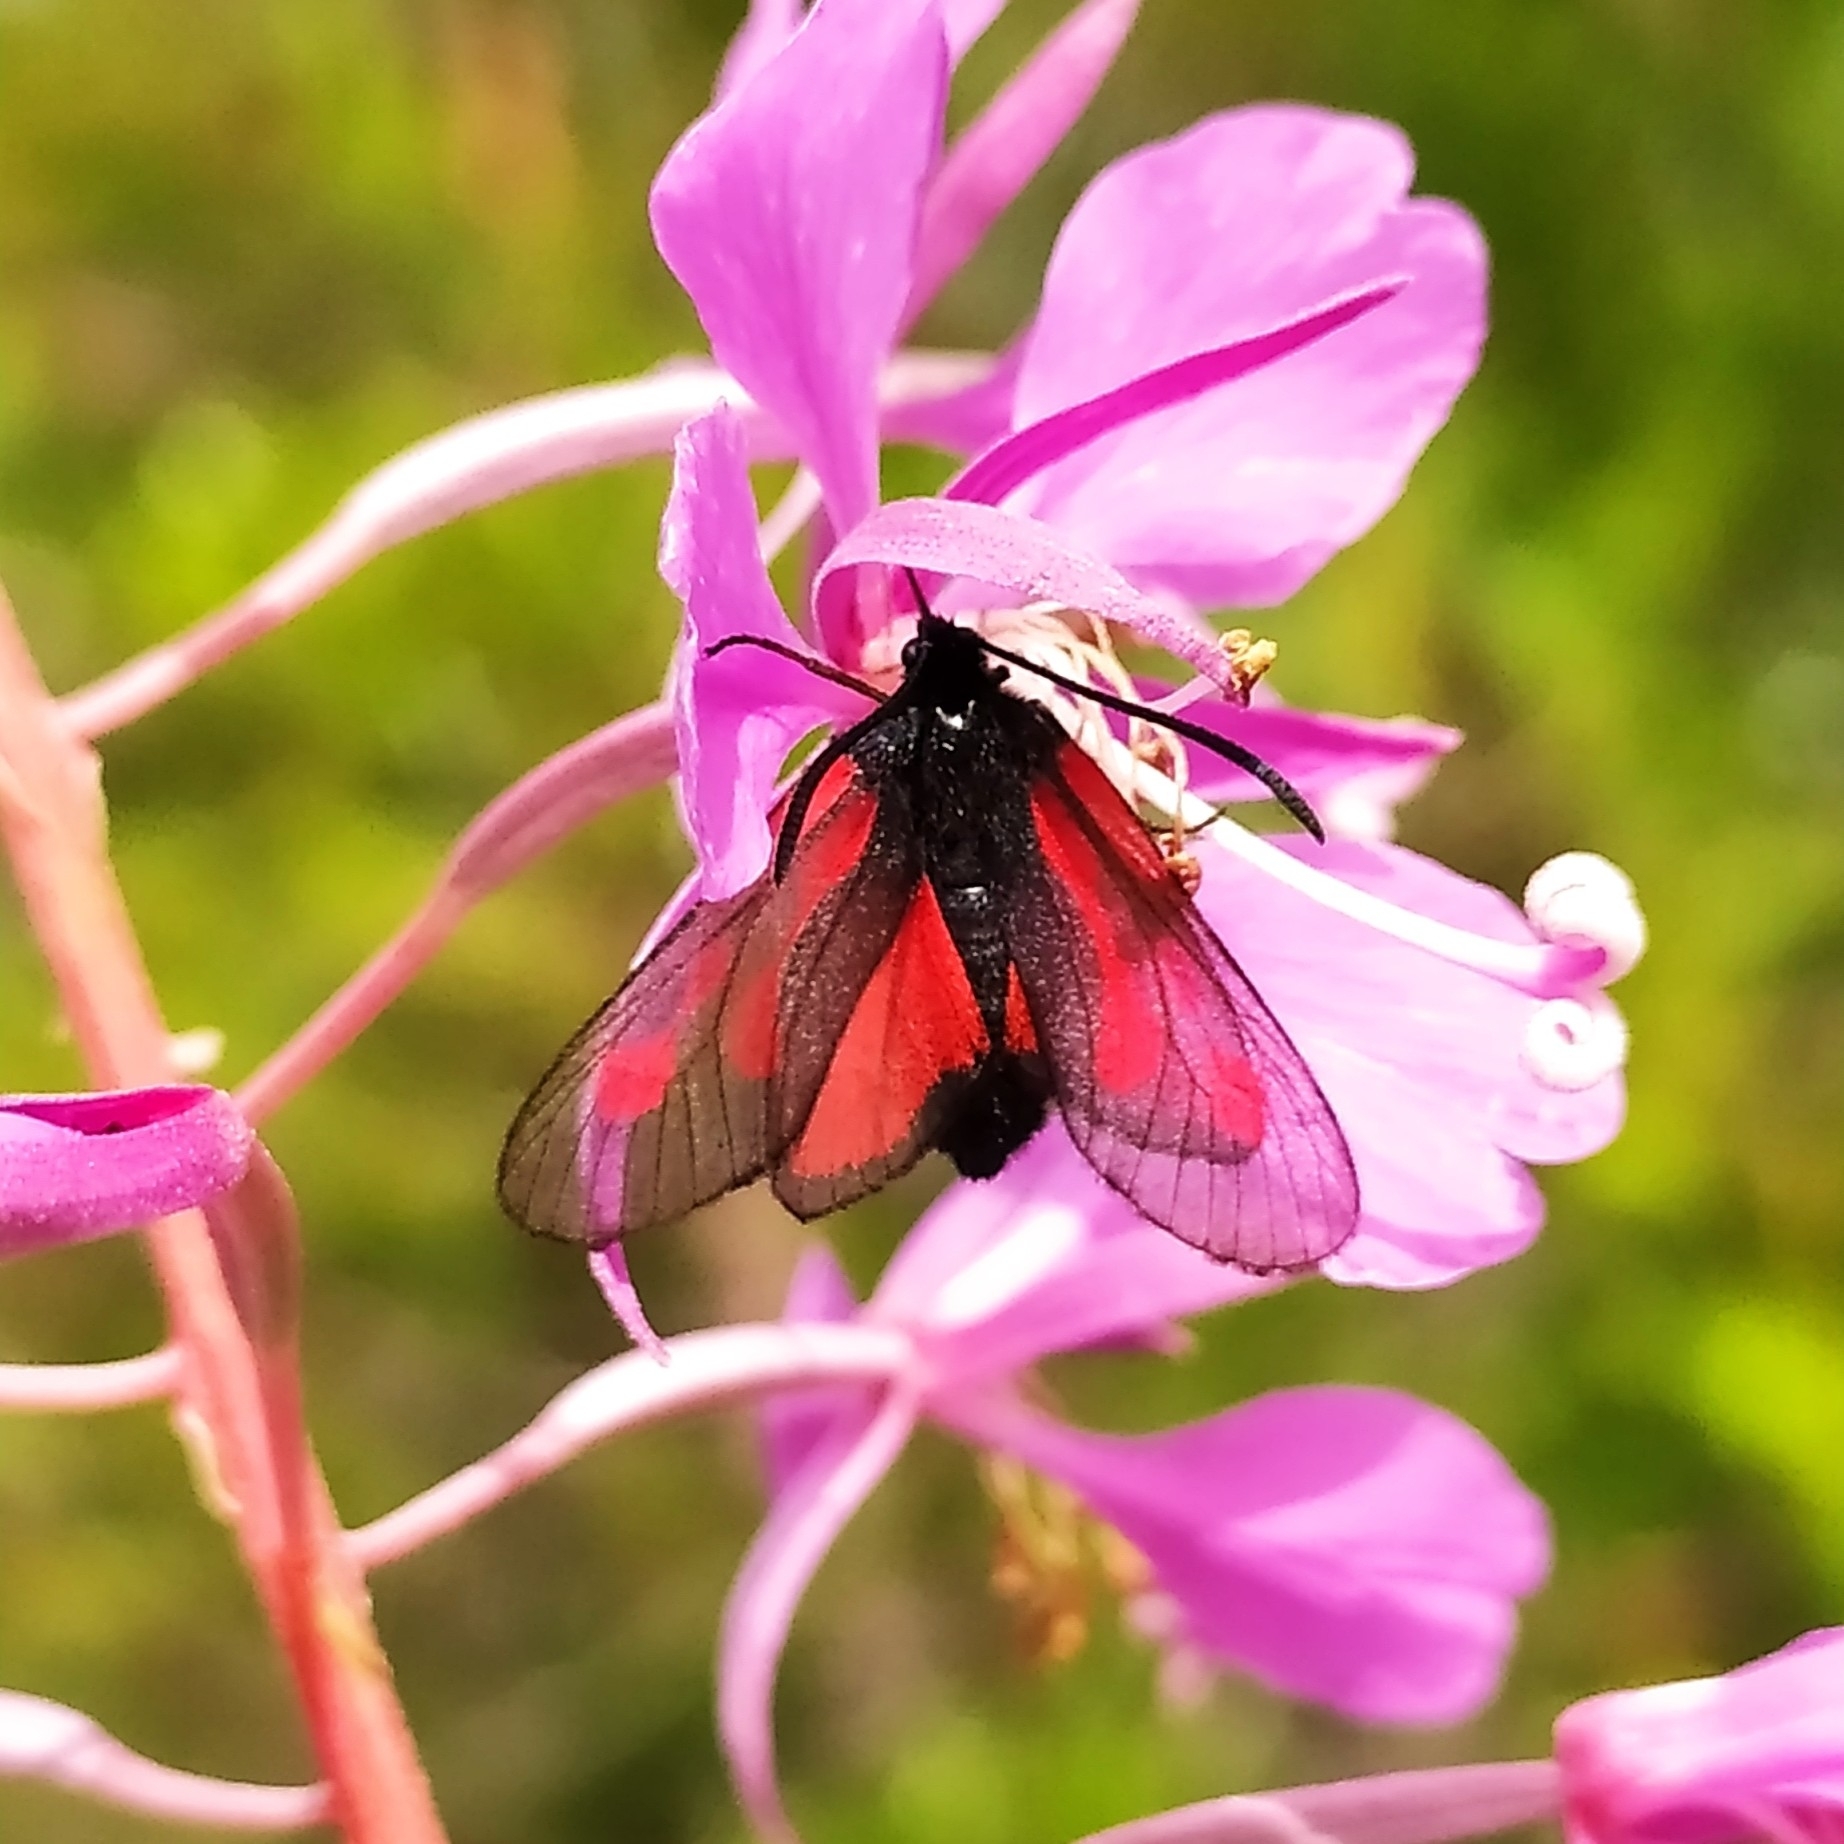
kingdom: Animalia
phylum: Arthropoda
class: Insecta
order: Lepidoptera
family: Zygaenidae
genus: Zygaena
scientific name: Zygaena osterodensis
